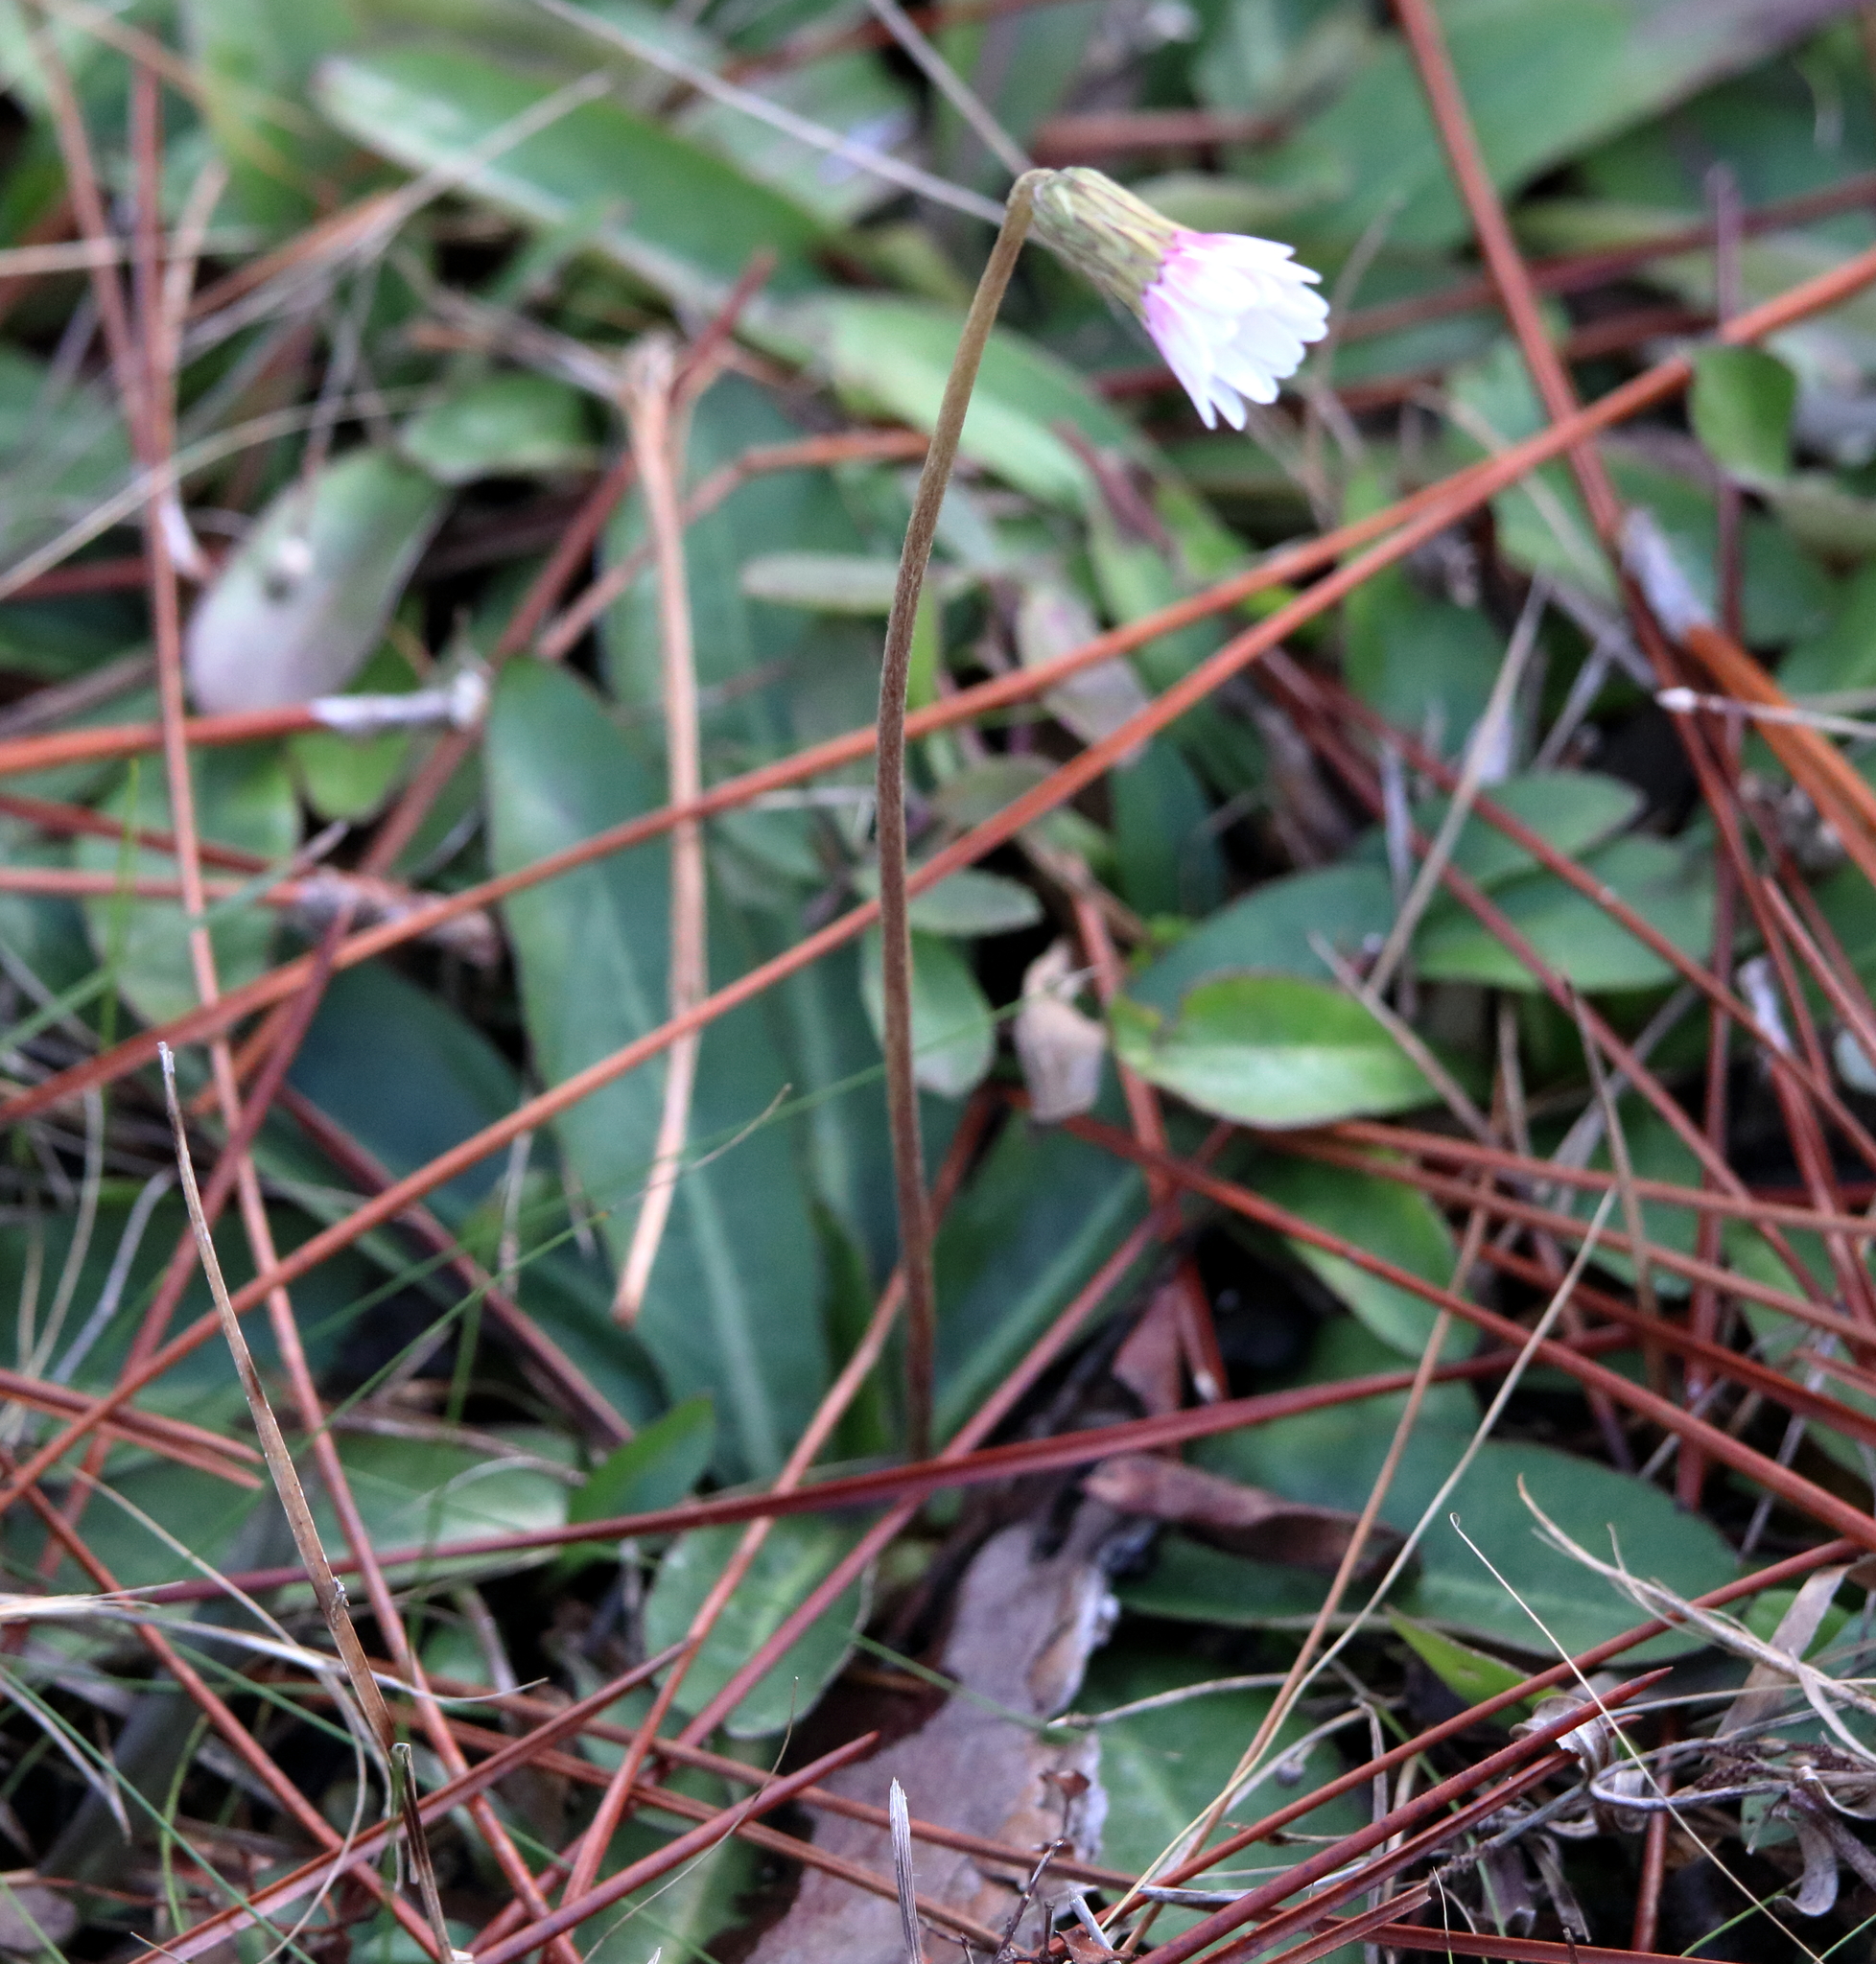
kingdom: Plantae
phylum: Tracheophyta
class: Magnoliopsida
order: Asterales
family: Asteraceae
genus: Chaptalia
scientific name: Chaptalia tomentosa
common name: Woolly sunbonnet
